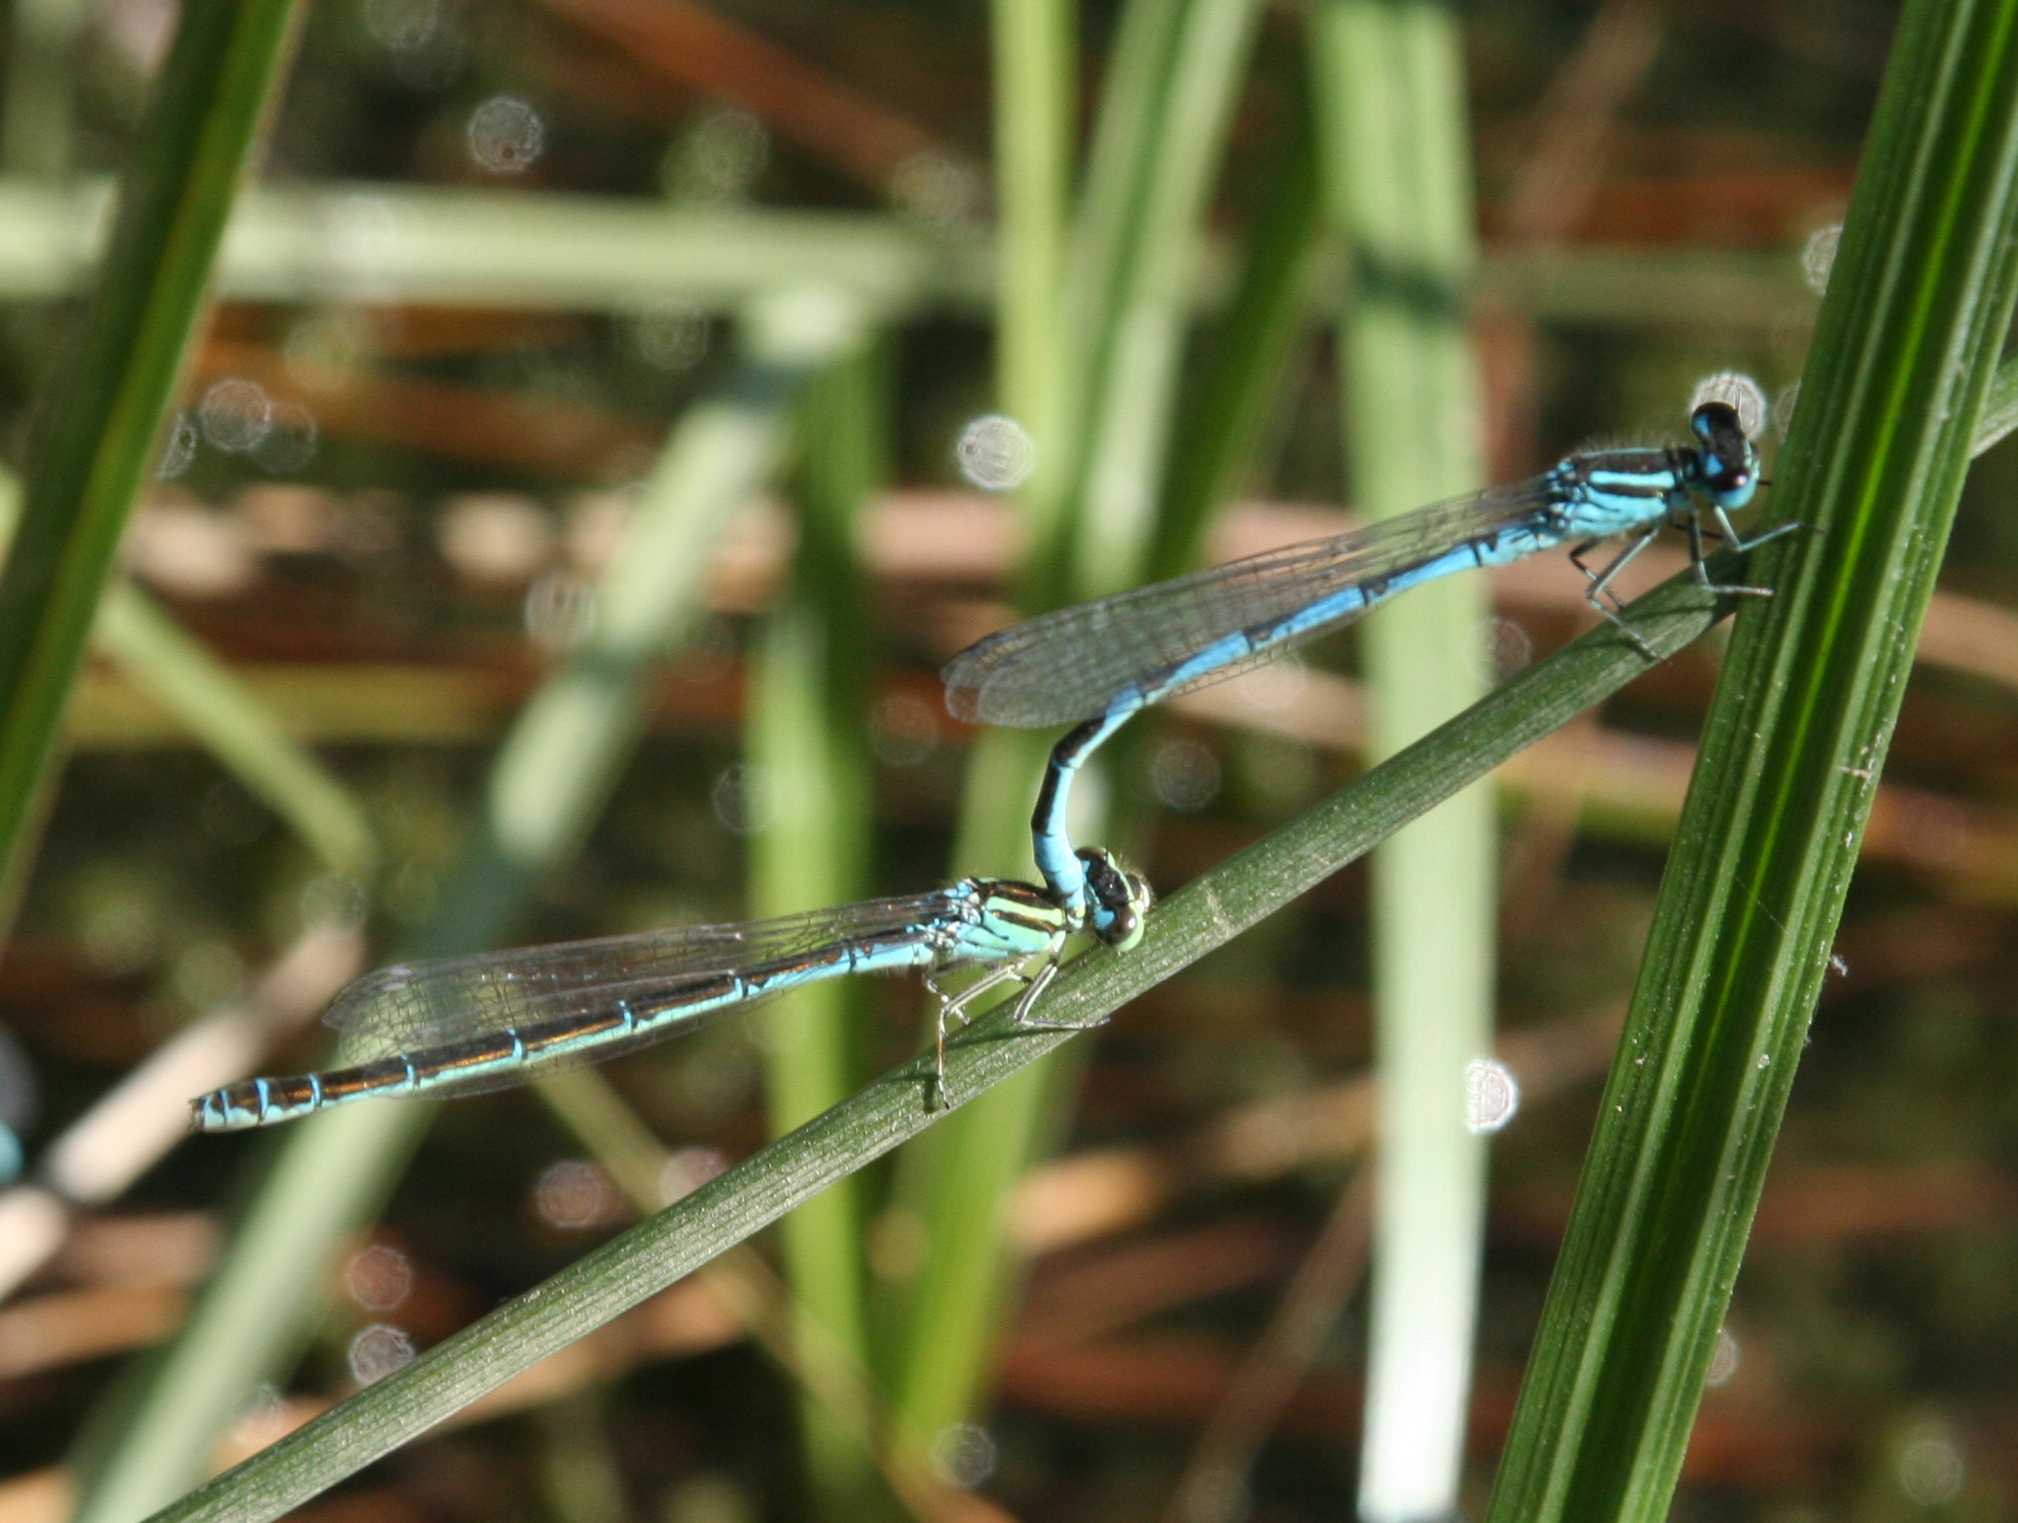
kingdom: Animalia
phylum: Arthropoda
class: Insecta
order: Odonata
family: Coenagrionidae
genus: Coenagrion
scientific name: Coenagrion ornatum
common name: Ornate bluet
